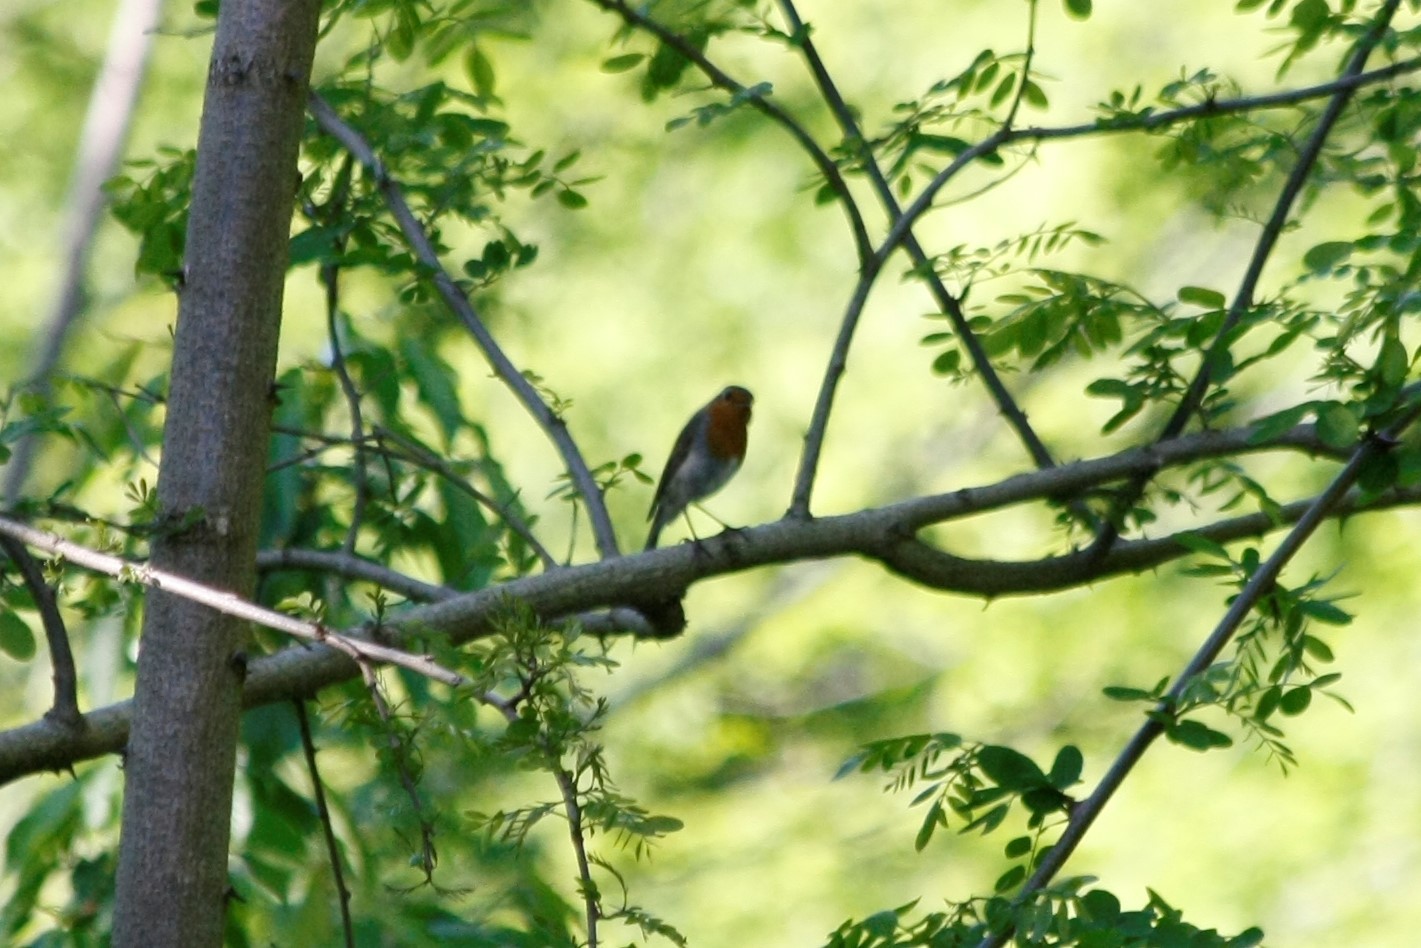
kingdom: Animalia
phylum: Chordata
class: Aves
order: Passeriformes
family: Muscicapidae
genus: Erithacus
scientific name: Erithacus rubecula
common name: European robin
